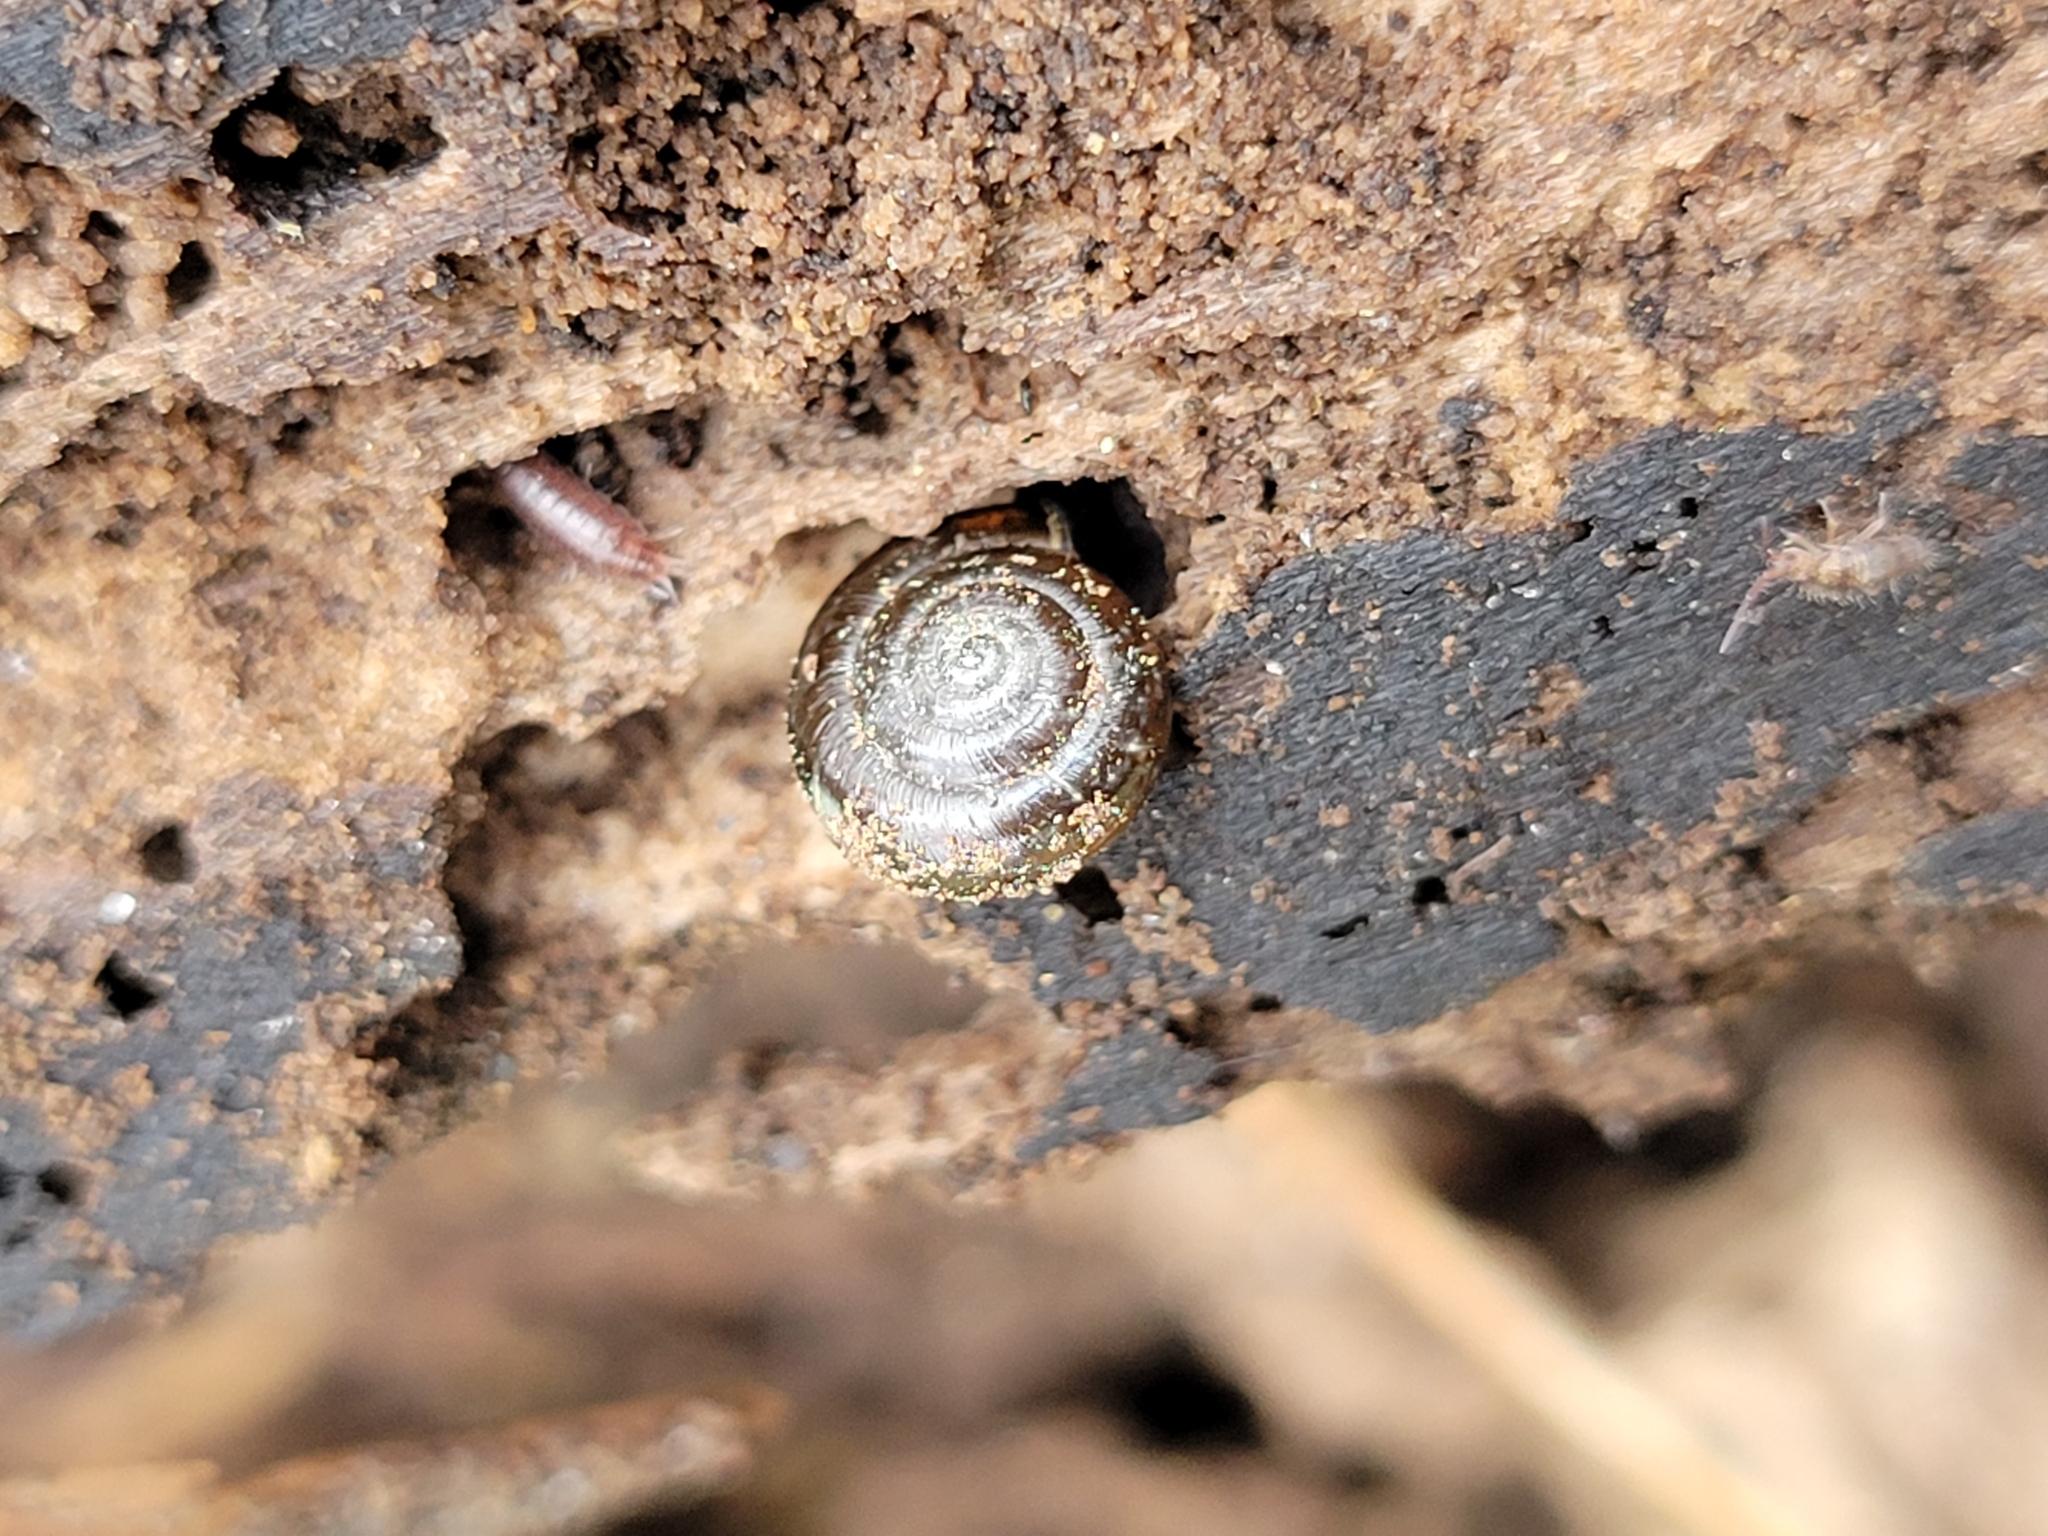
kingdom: Animalia
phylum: Mollusca
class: Gastropoda
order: Stylommatophora
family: Gastrodontidae
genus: Zonitoides
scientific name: Zonitoides arboreus
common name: Quick gloss
